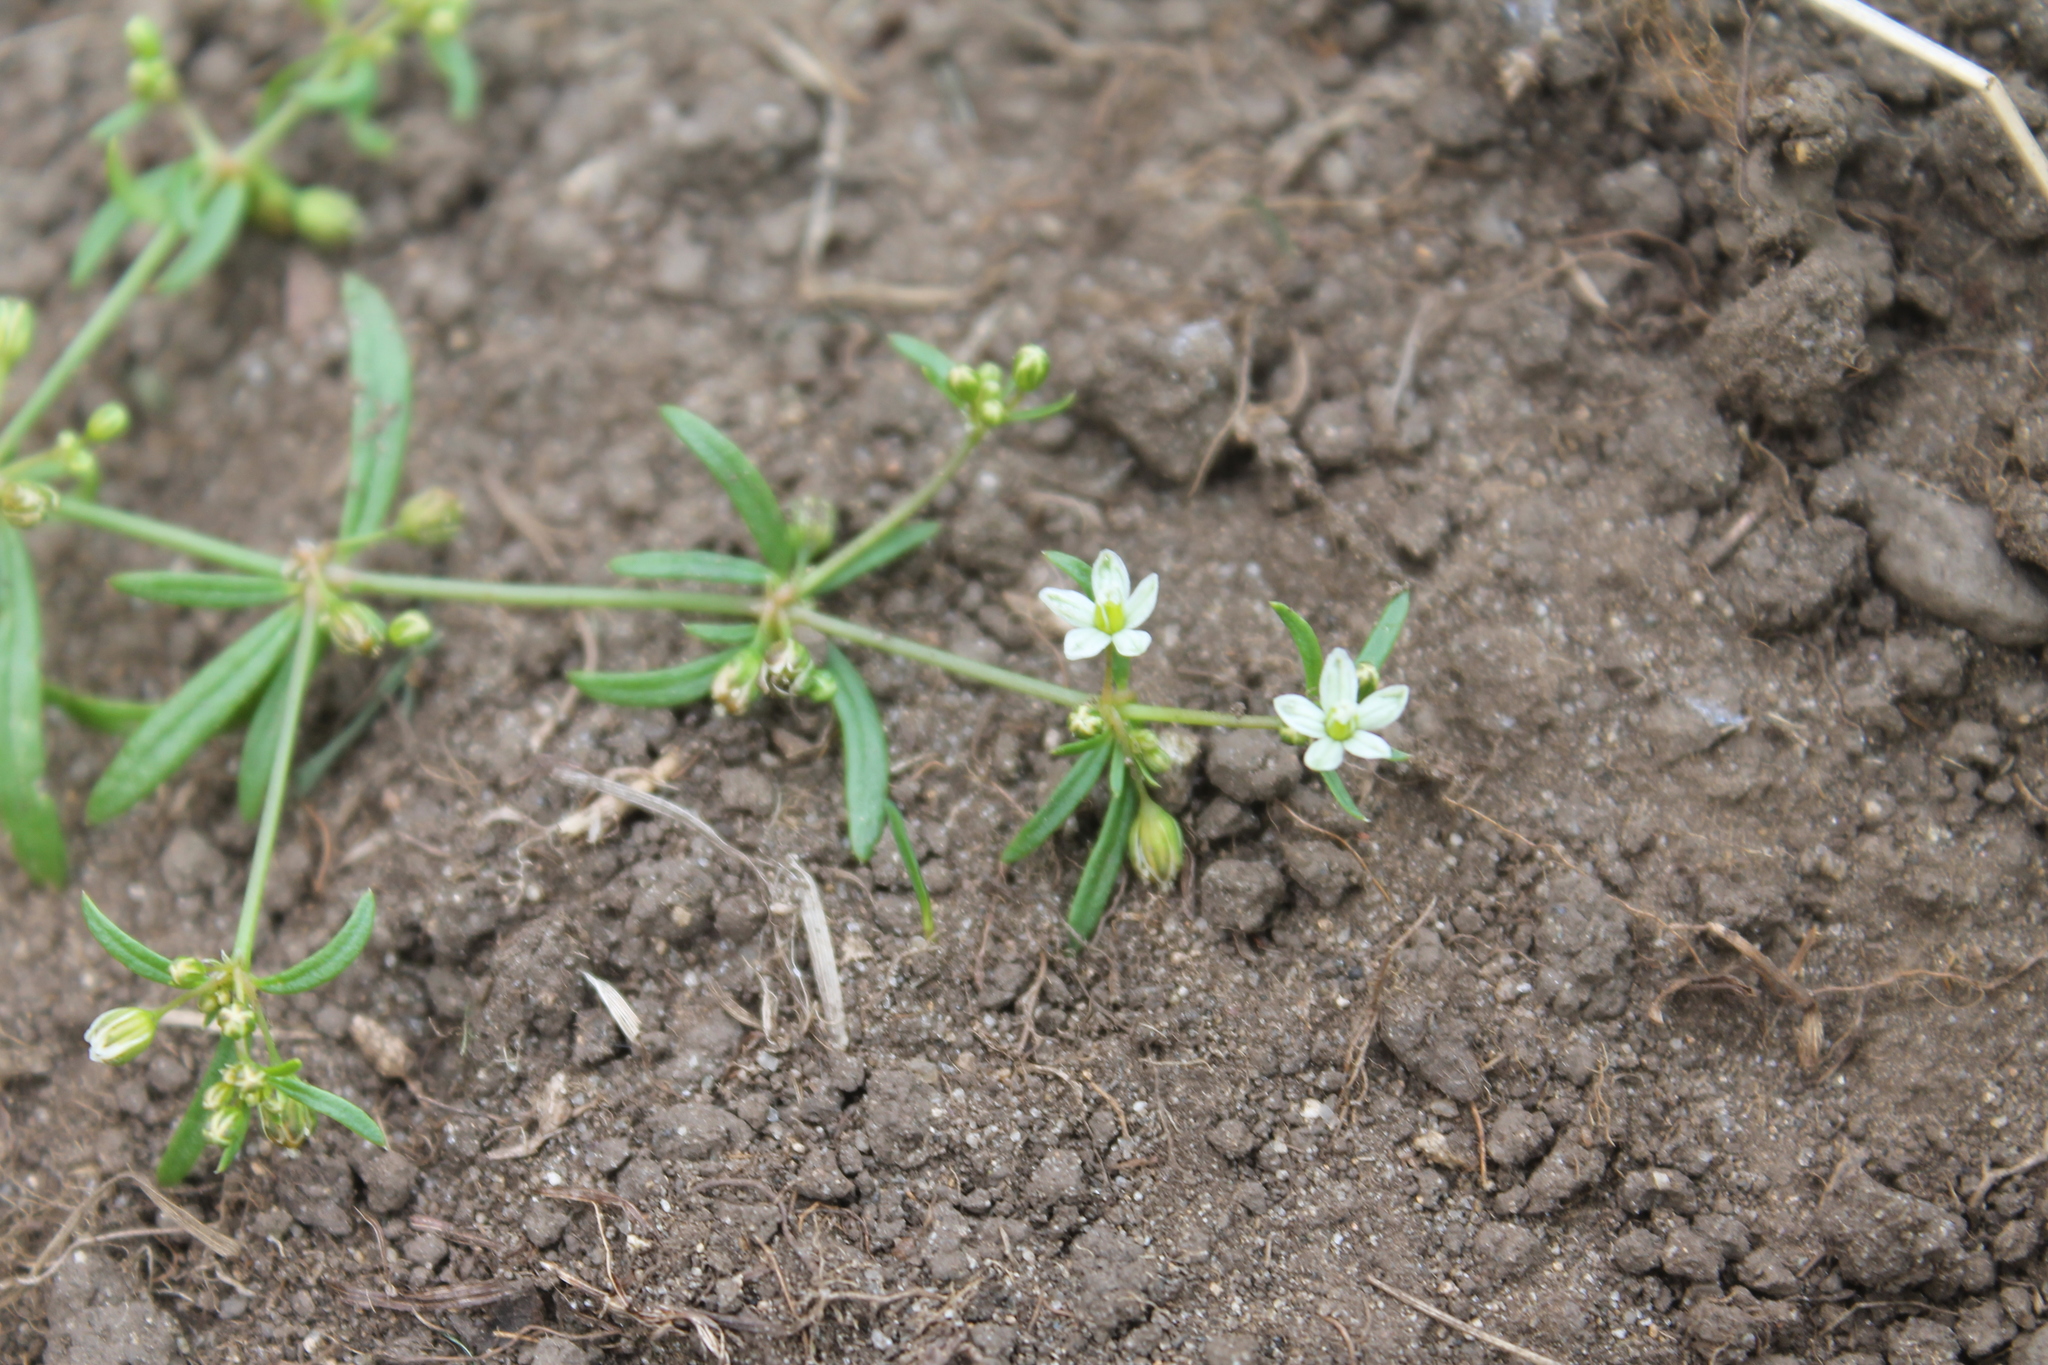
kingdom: Plantae
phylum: Tracheophyta
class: Magnoliopsida
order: Caryophyllales
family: Molluginaceae
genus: Mollugo
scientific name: Mollugo verticillata
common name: Green carpetweed
